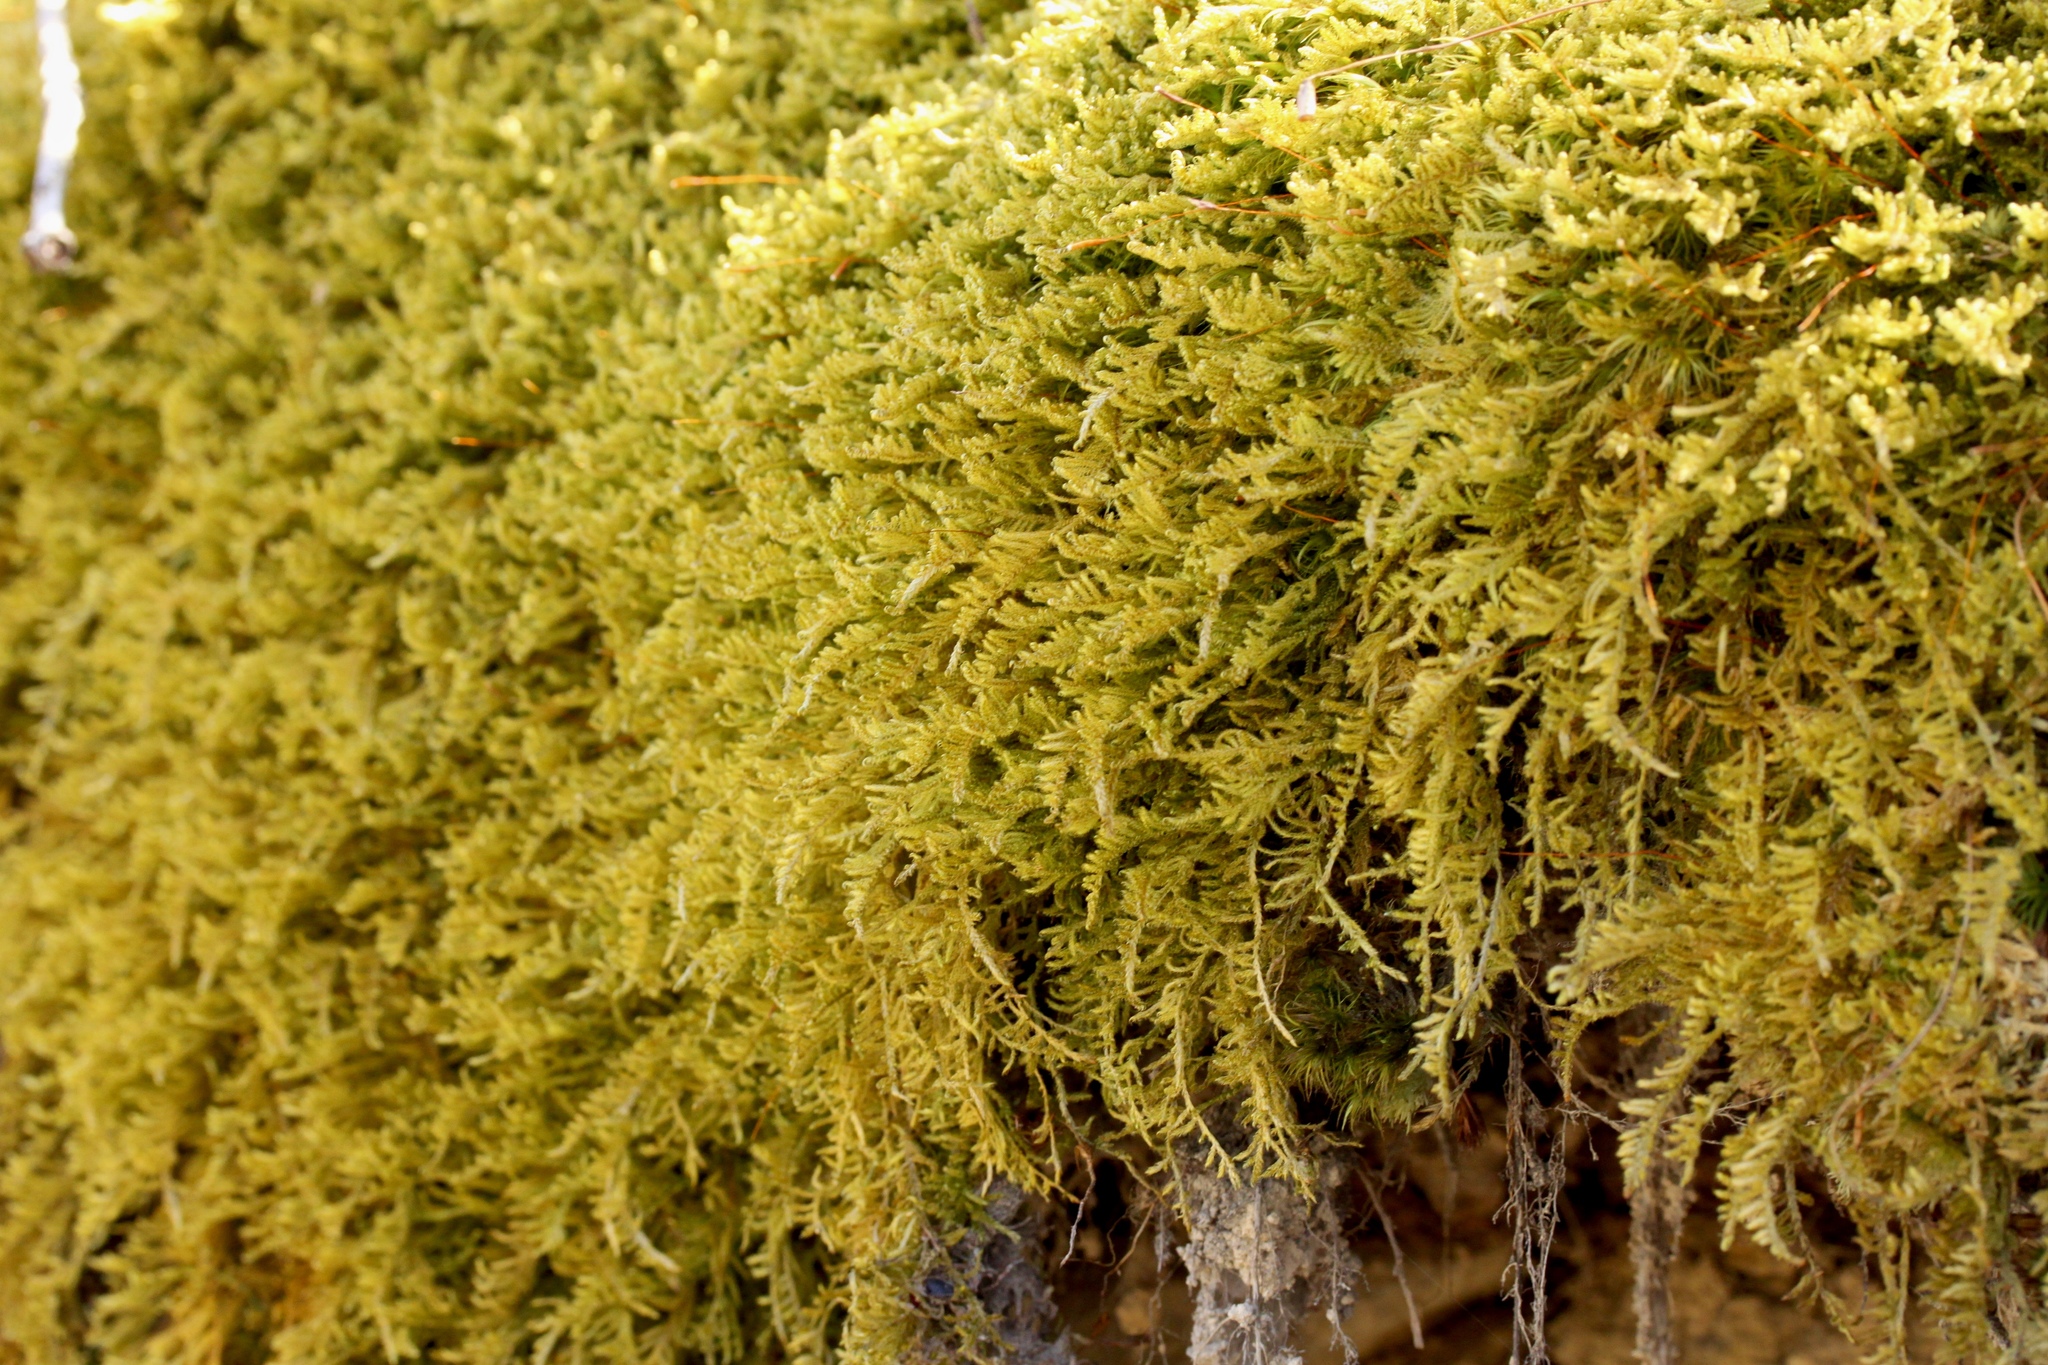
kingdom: Plantae
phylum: Bryophyta
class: Bryopsida
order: Hypnales
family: Thuidiaceae
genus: Thuidium
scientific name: Thuidium delicatulum
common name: Delicate fern moss
